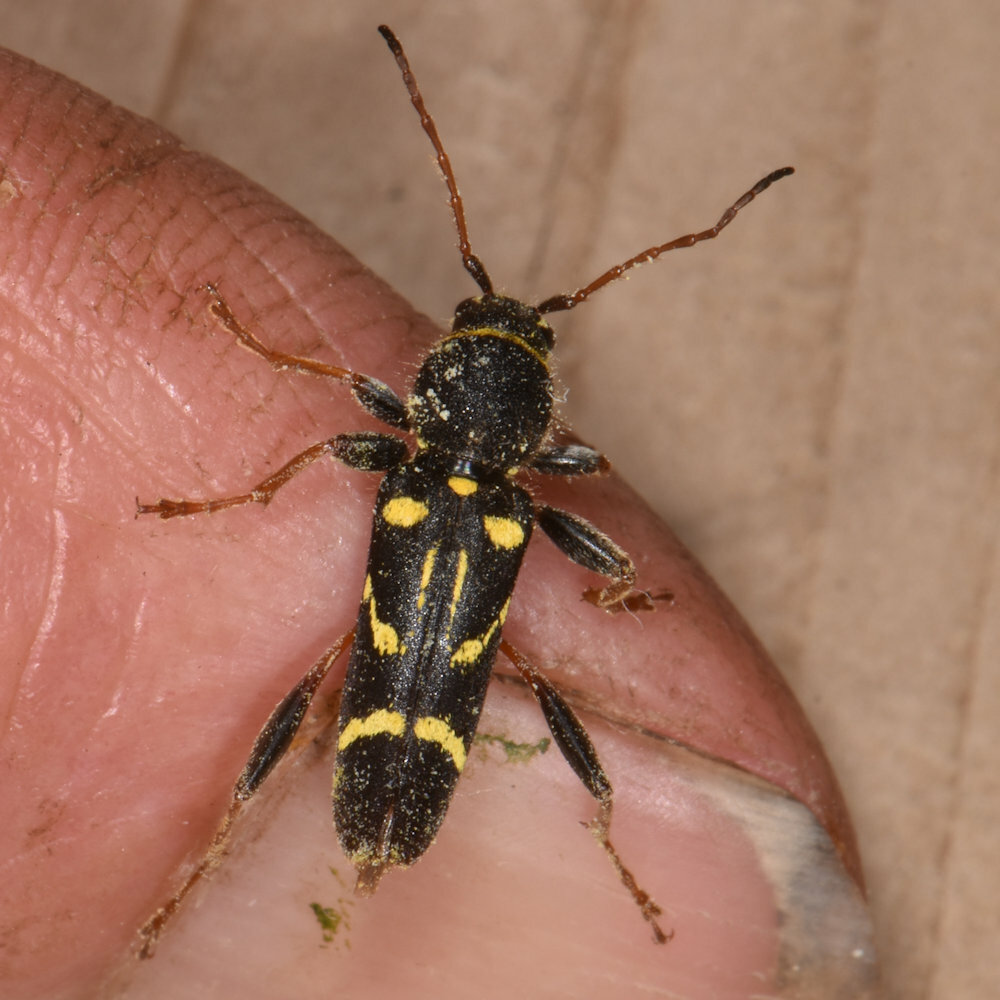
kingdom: Animalia
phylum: Arthropoda
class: Insecta
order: Coleoptera
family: Cerambycidae
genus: Clytus
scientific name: Clytus ruricola
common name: Round-necked longhorn beetle
